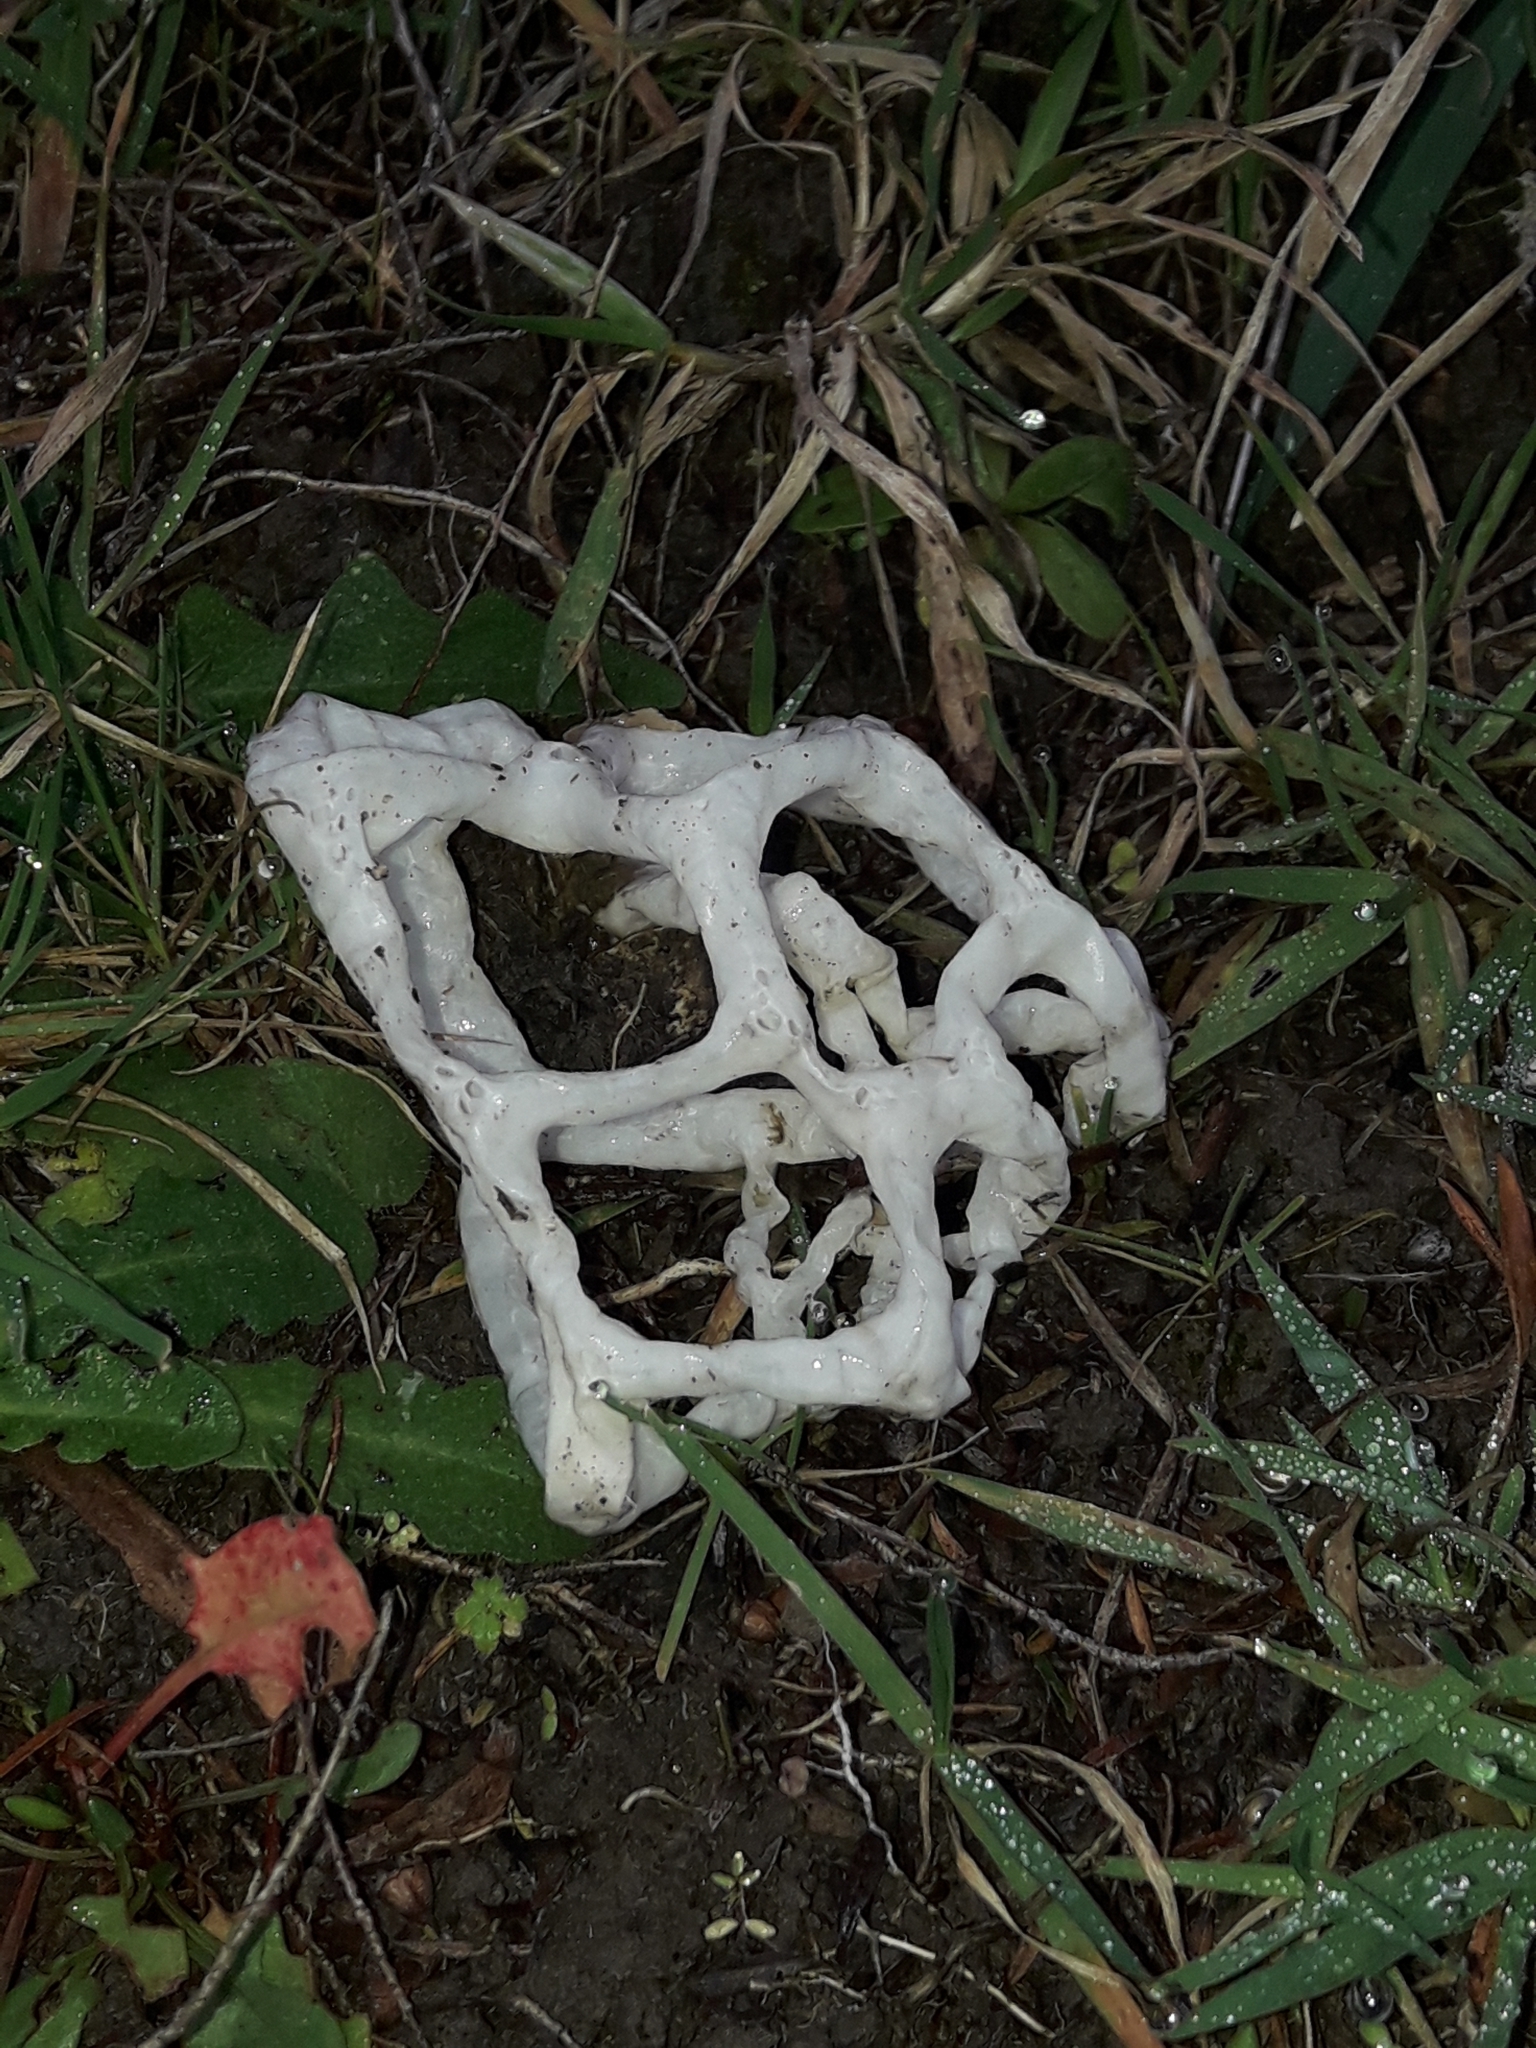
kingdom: Fungi
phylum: Basidiomycota
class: Agaricomycetes
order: Phallales
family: Phallaceae
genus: Ileodictyon
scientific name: Ileodictyon cibarium
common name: Basket fungus
